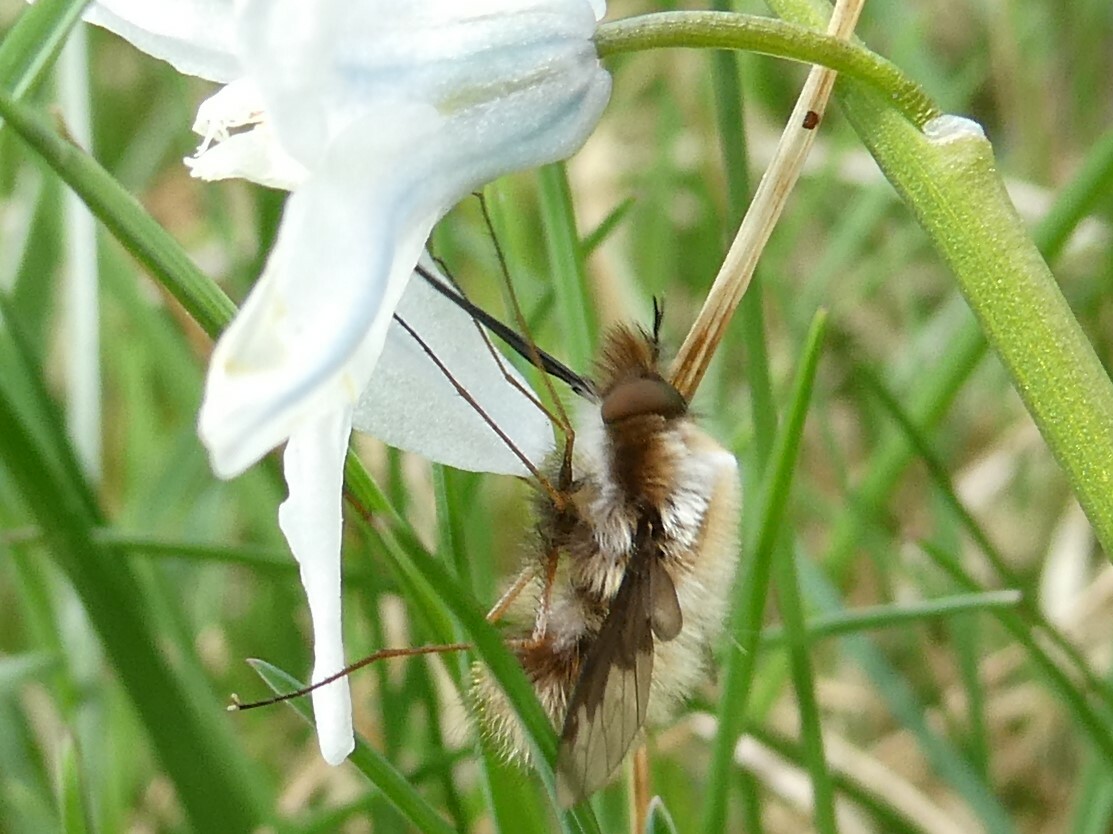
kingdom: Animalia
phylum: Arthropoda
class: Insecta
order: Diptera
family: Bombyliidae
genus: Bombylius
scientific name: Bombylius major
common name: Bee fly
